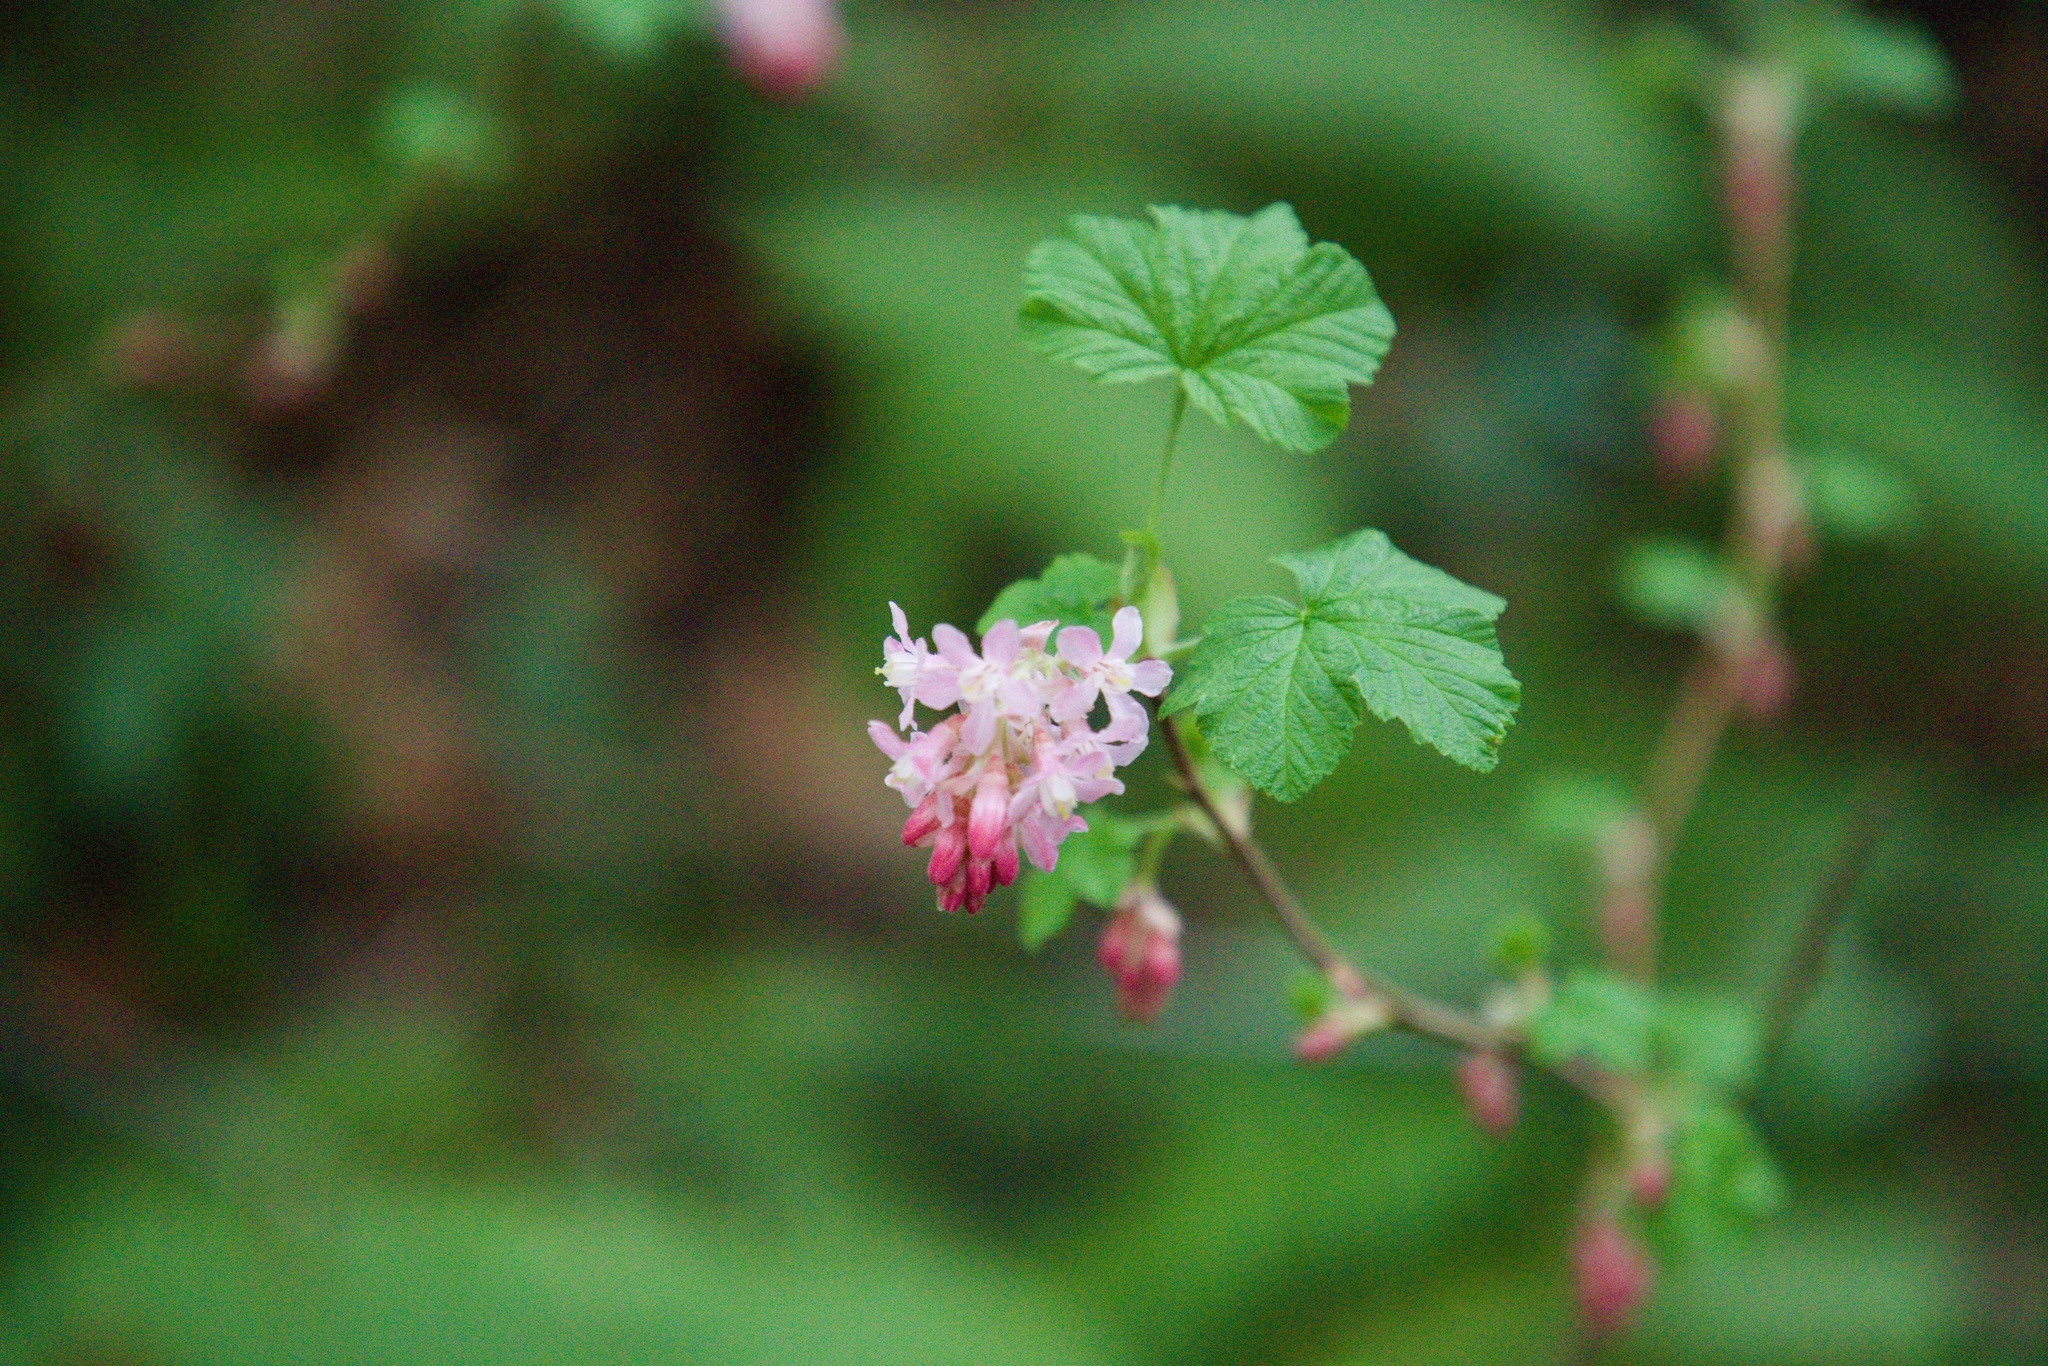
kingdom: Plantae
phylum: Tracheophyta
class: Magnoliopsida
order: Saxifragales
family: Grossulariaceae
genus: Ribes
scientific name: Ribes sanguineum
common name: Flowering currant
